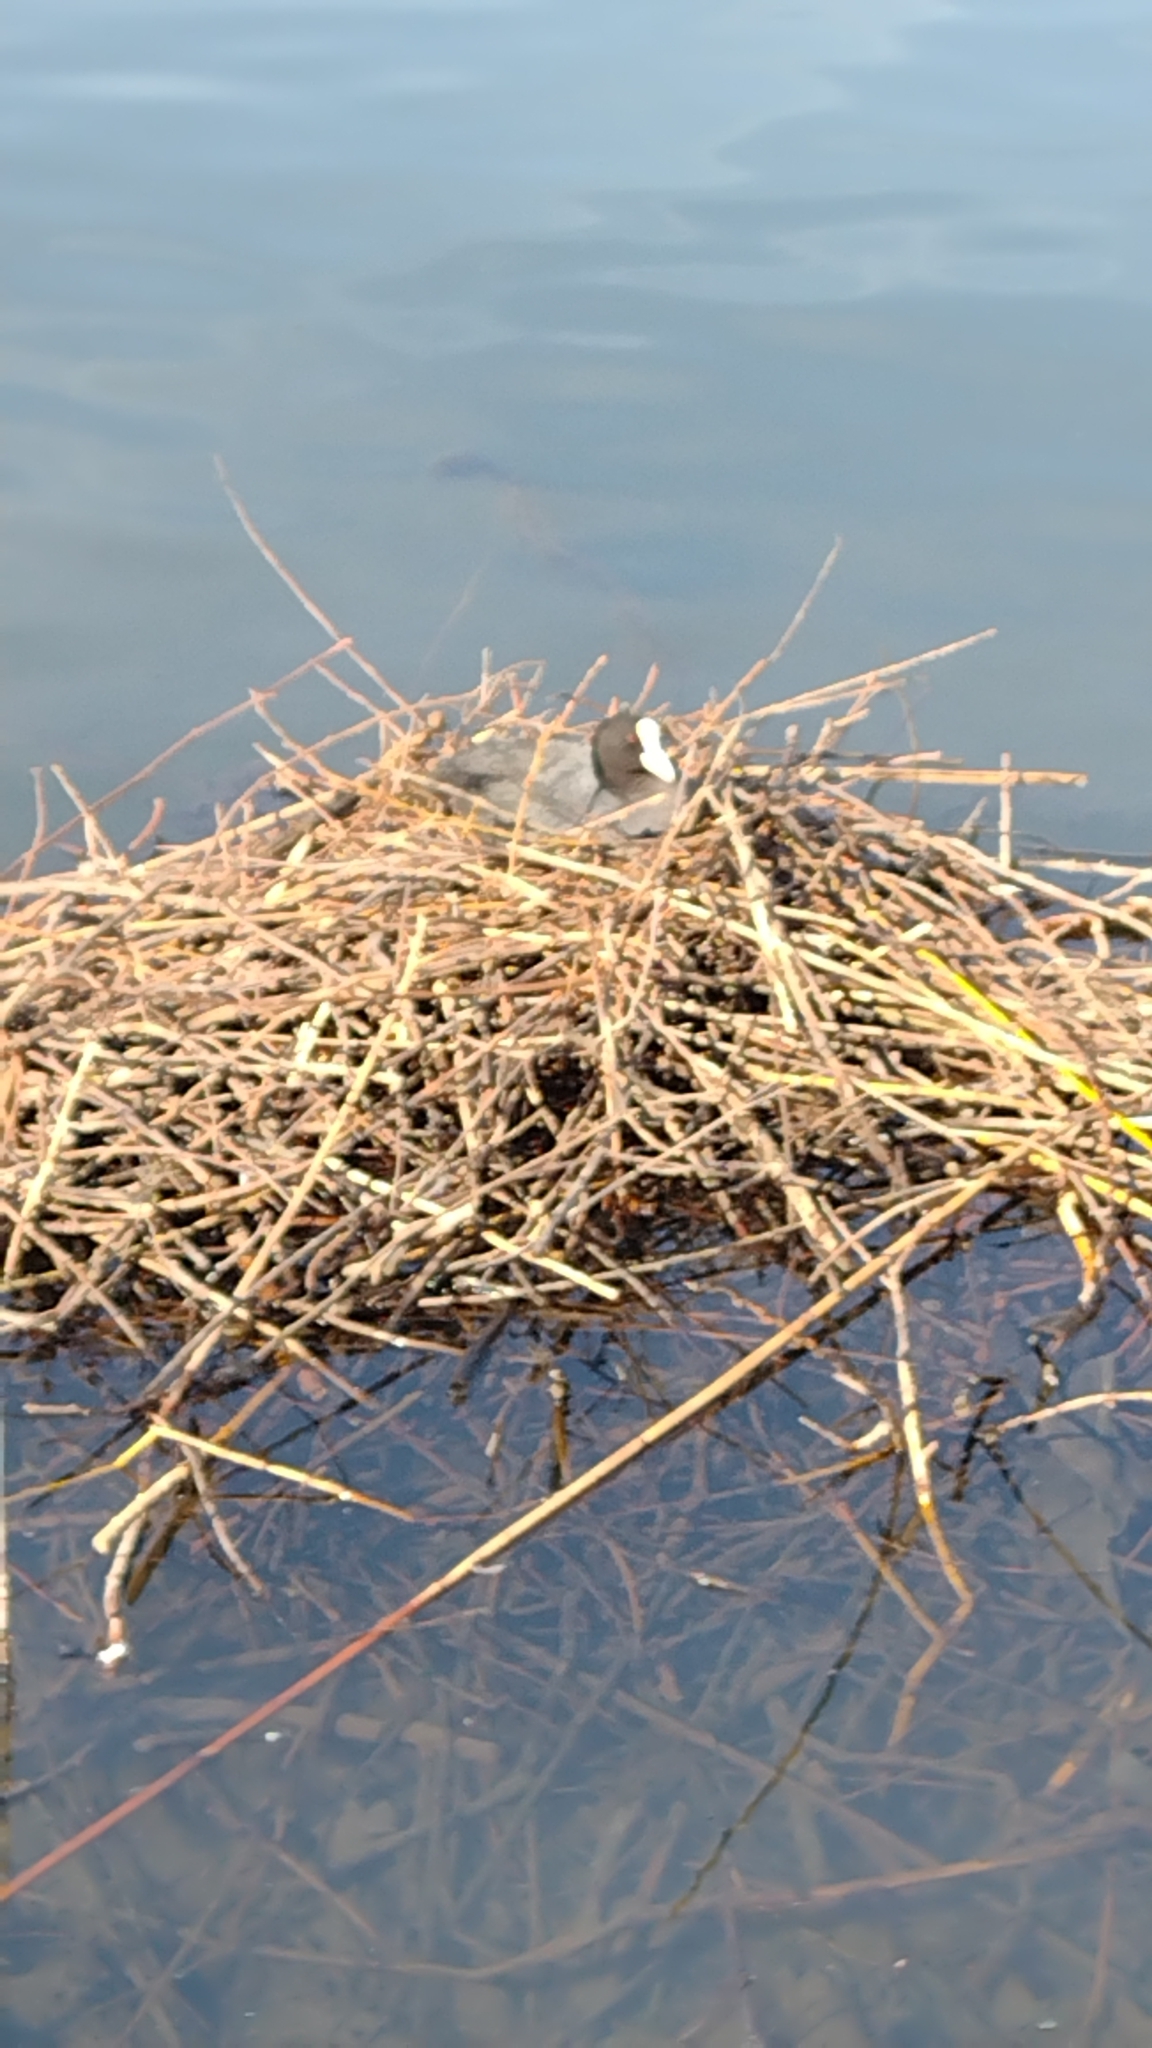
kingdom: Animalia
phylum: Chordata
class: Aves
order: Gruiformes
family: Rallidae
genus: Fulica
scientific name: Fulica atra
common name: Eurasian coot
